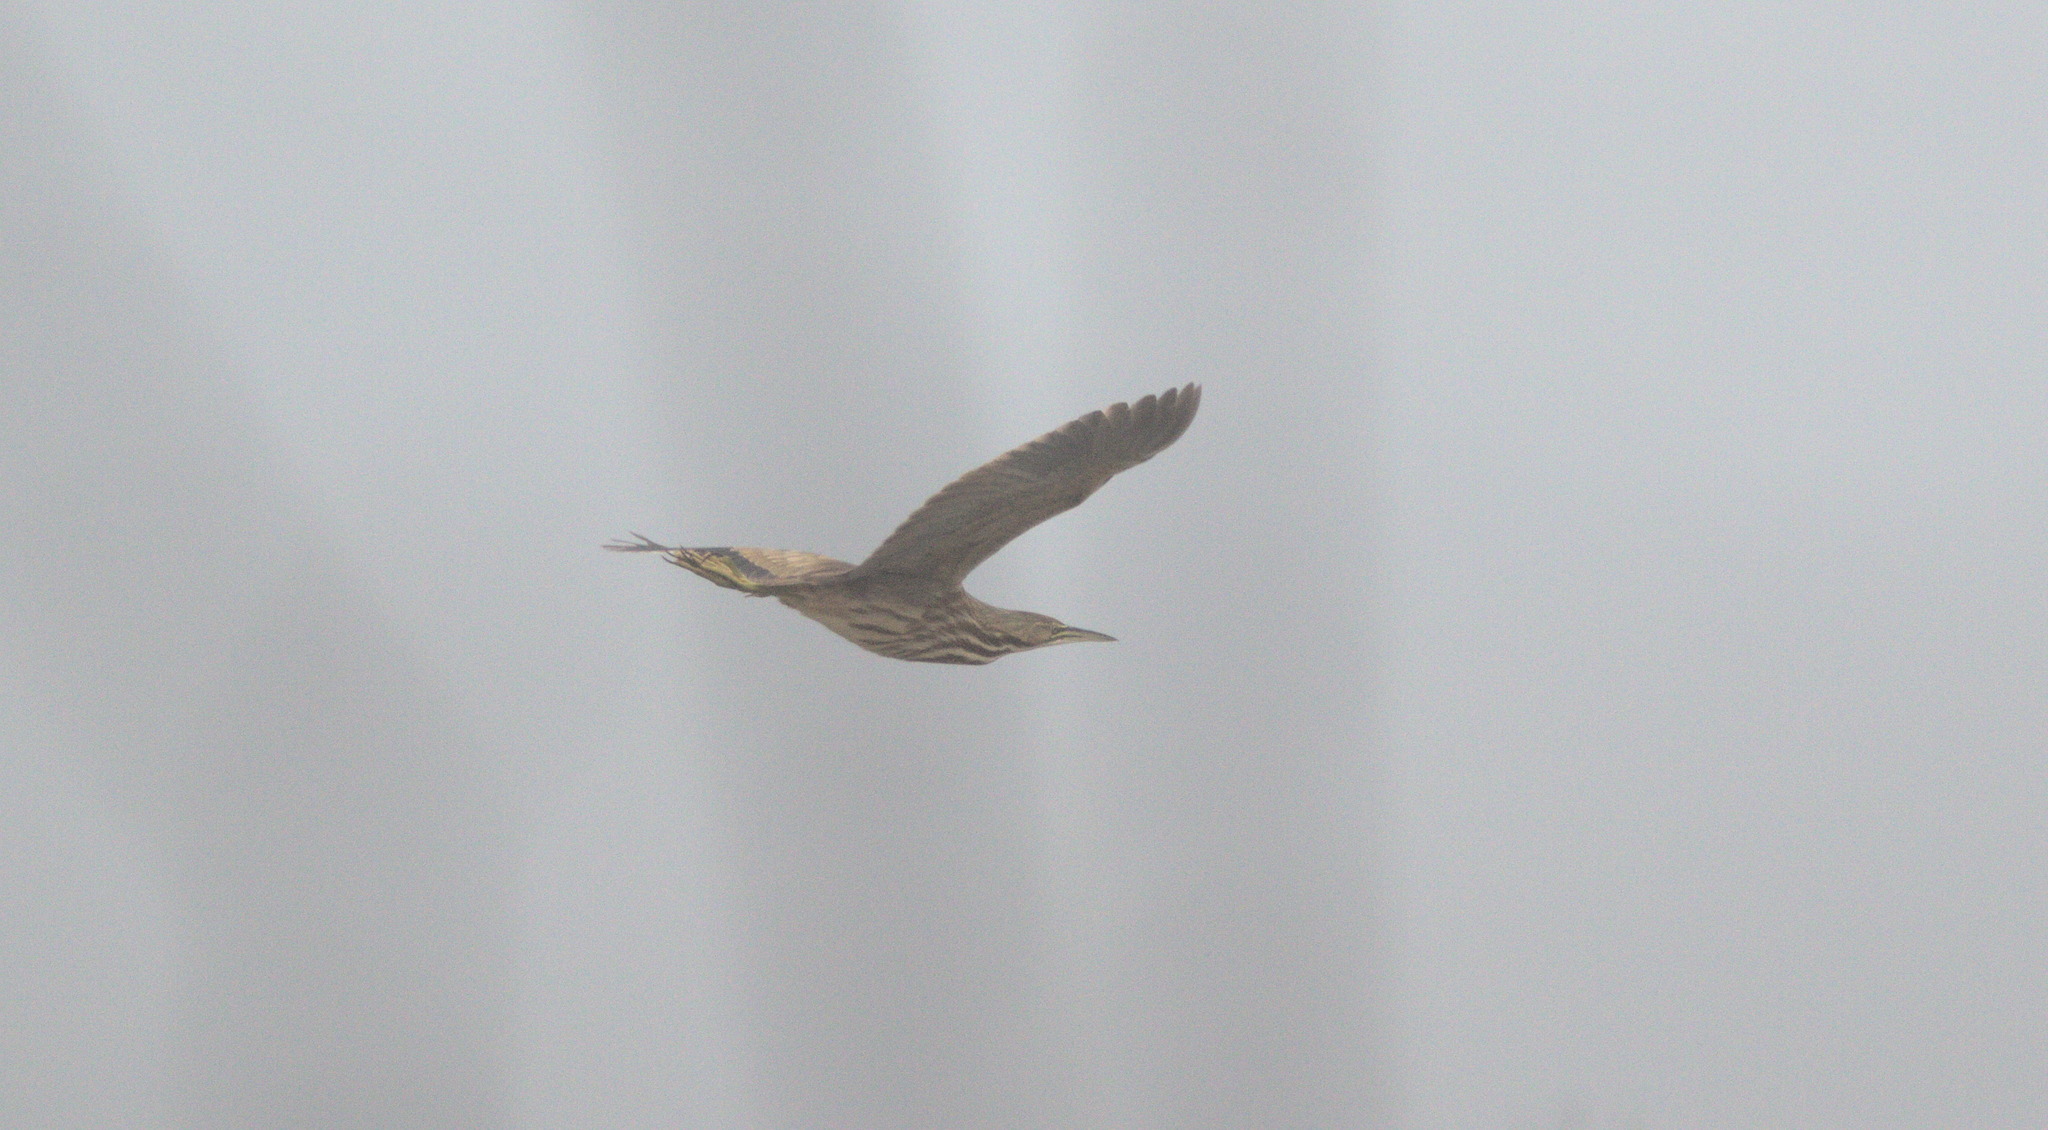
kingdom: Animalia
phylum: Chordata
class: Aves
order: Pelecaniformes
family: Ardeidae
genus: Botaurus
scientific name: Botaurus lentiginosus
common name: American bittern
